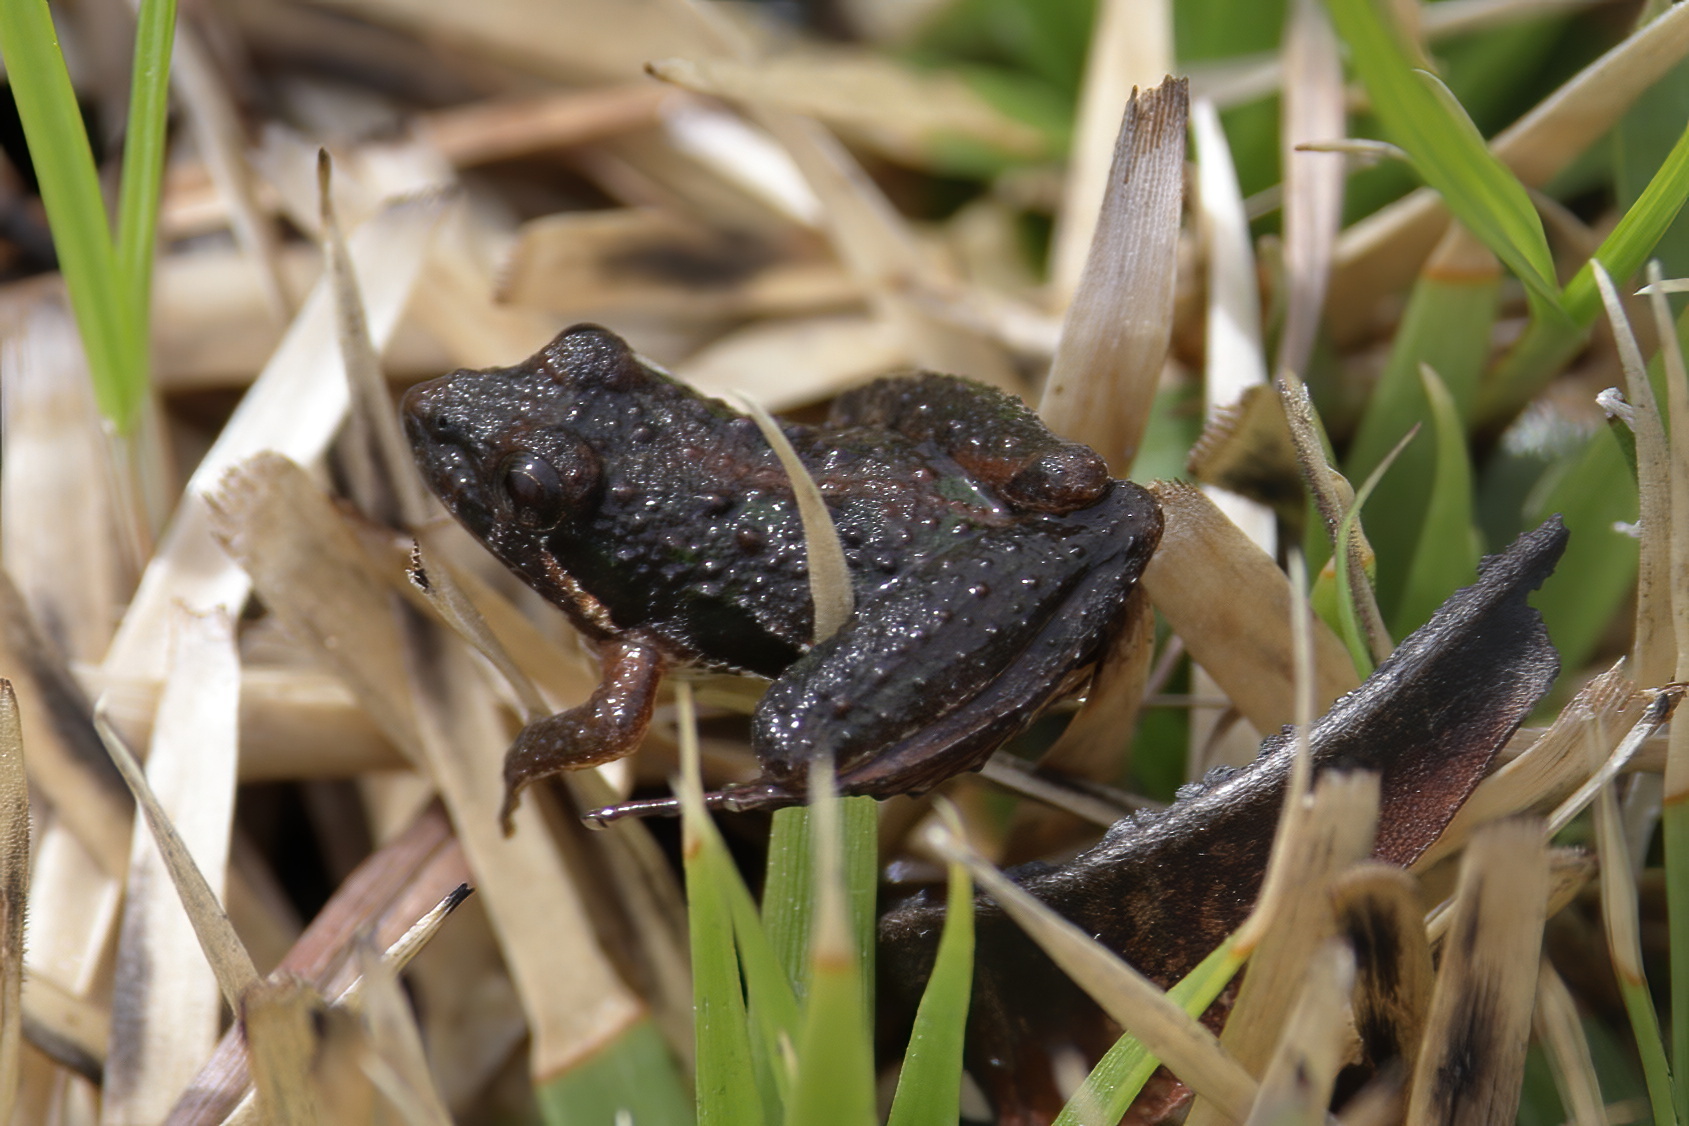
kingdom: Animalia
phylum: Chordata
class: Amphibia
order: Anura
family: Hylidae
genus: Acris
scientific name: Acris gryllus
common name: Southern cricket frog
